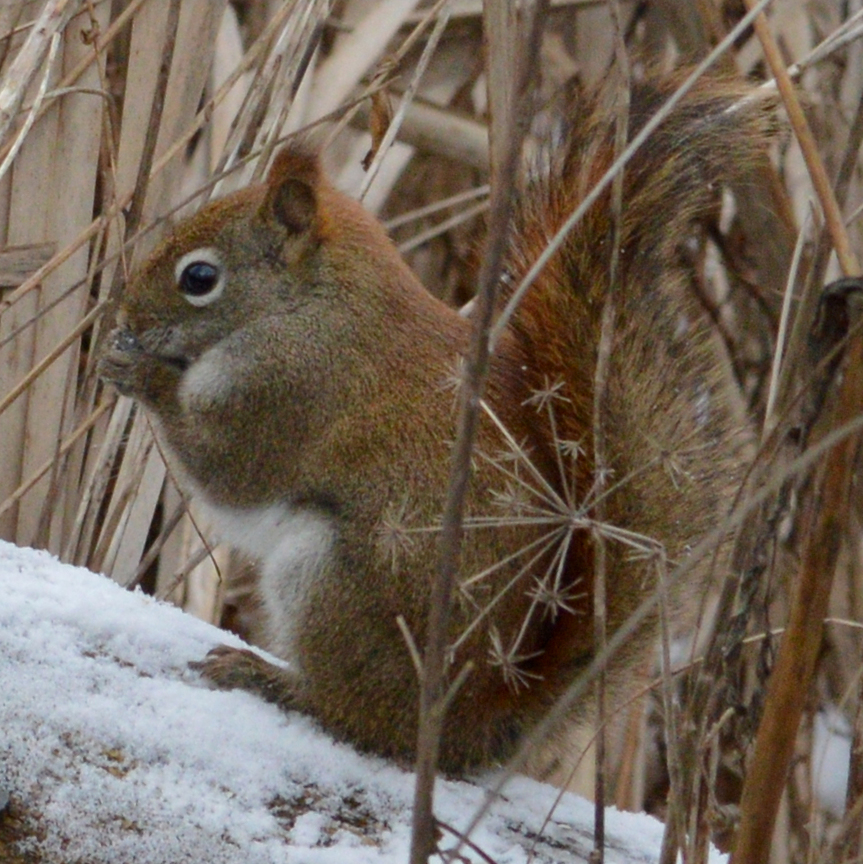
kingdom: Animalia
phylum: Chordata
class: Mammalia
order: Rodentia
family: Sciuridae
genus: Tamiasciurus
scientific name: Tamiasciurus hudsonicus
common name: Red squirrel
